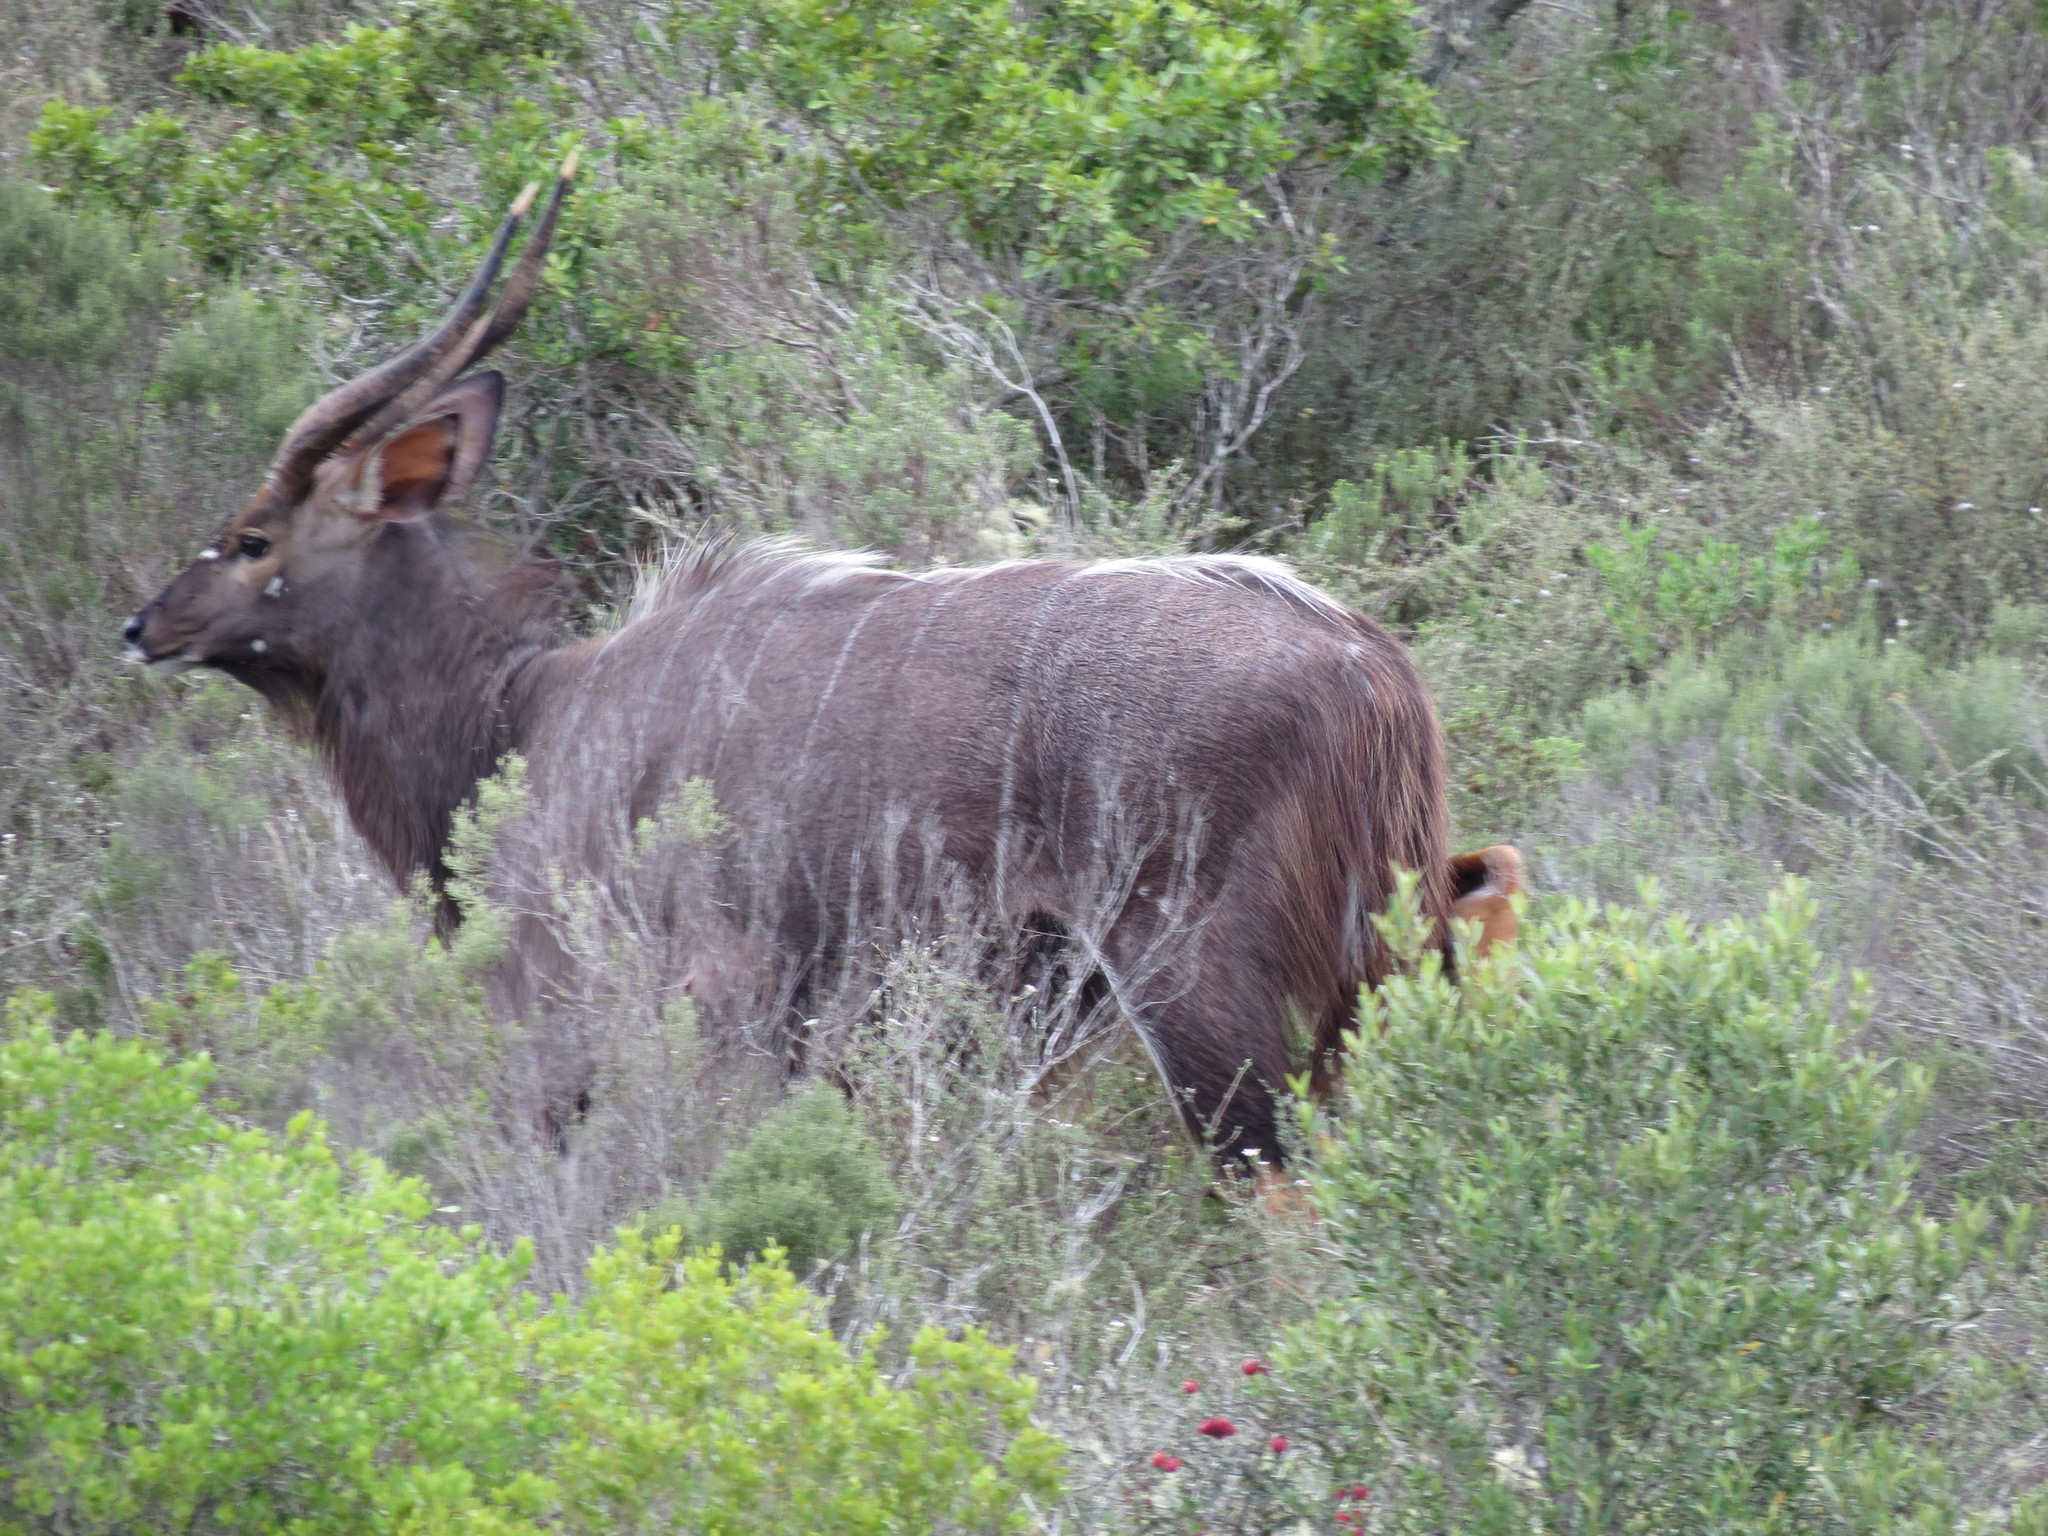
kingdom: Animalia
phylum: Chordata
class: Mammalia
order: Artiodactyla
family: Bovidae
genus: Tragelaphus
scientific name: Tragelaphus angasii
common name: Nyala
